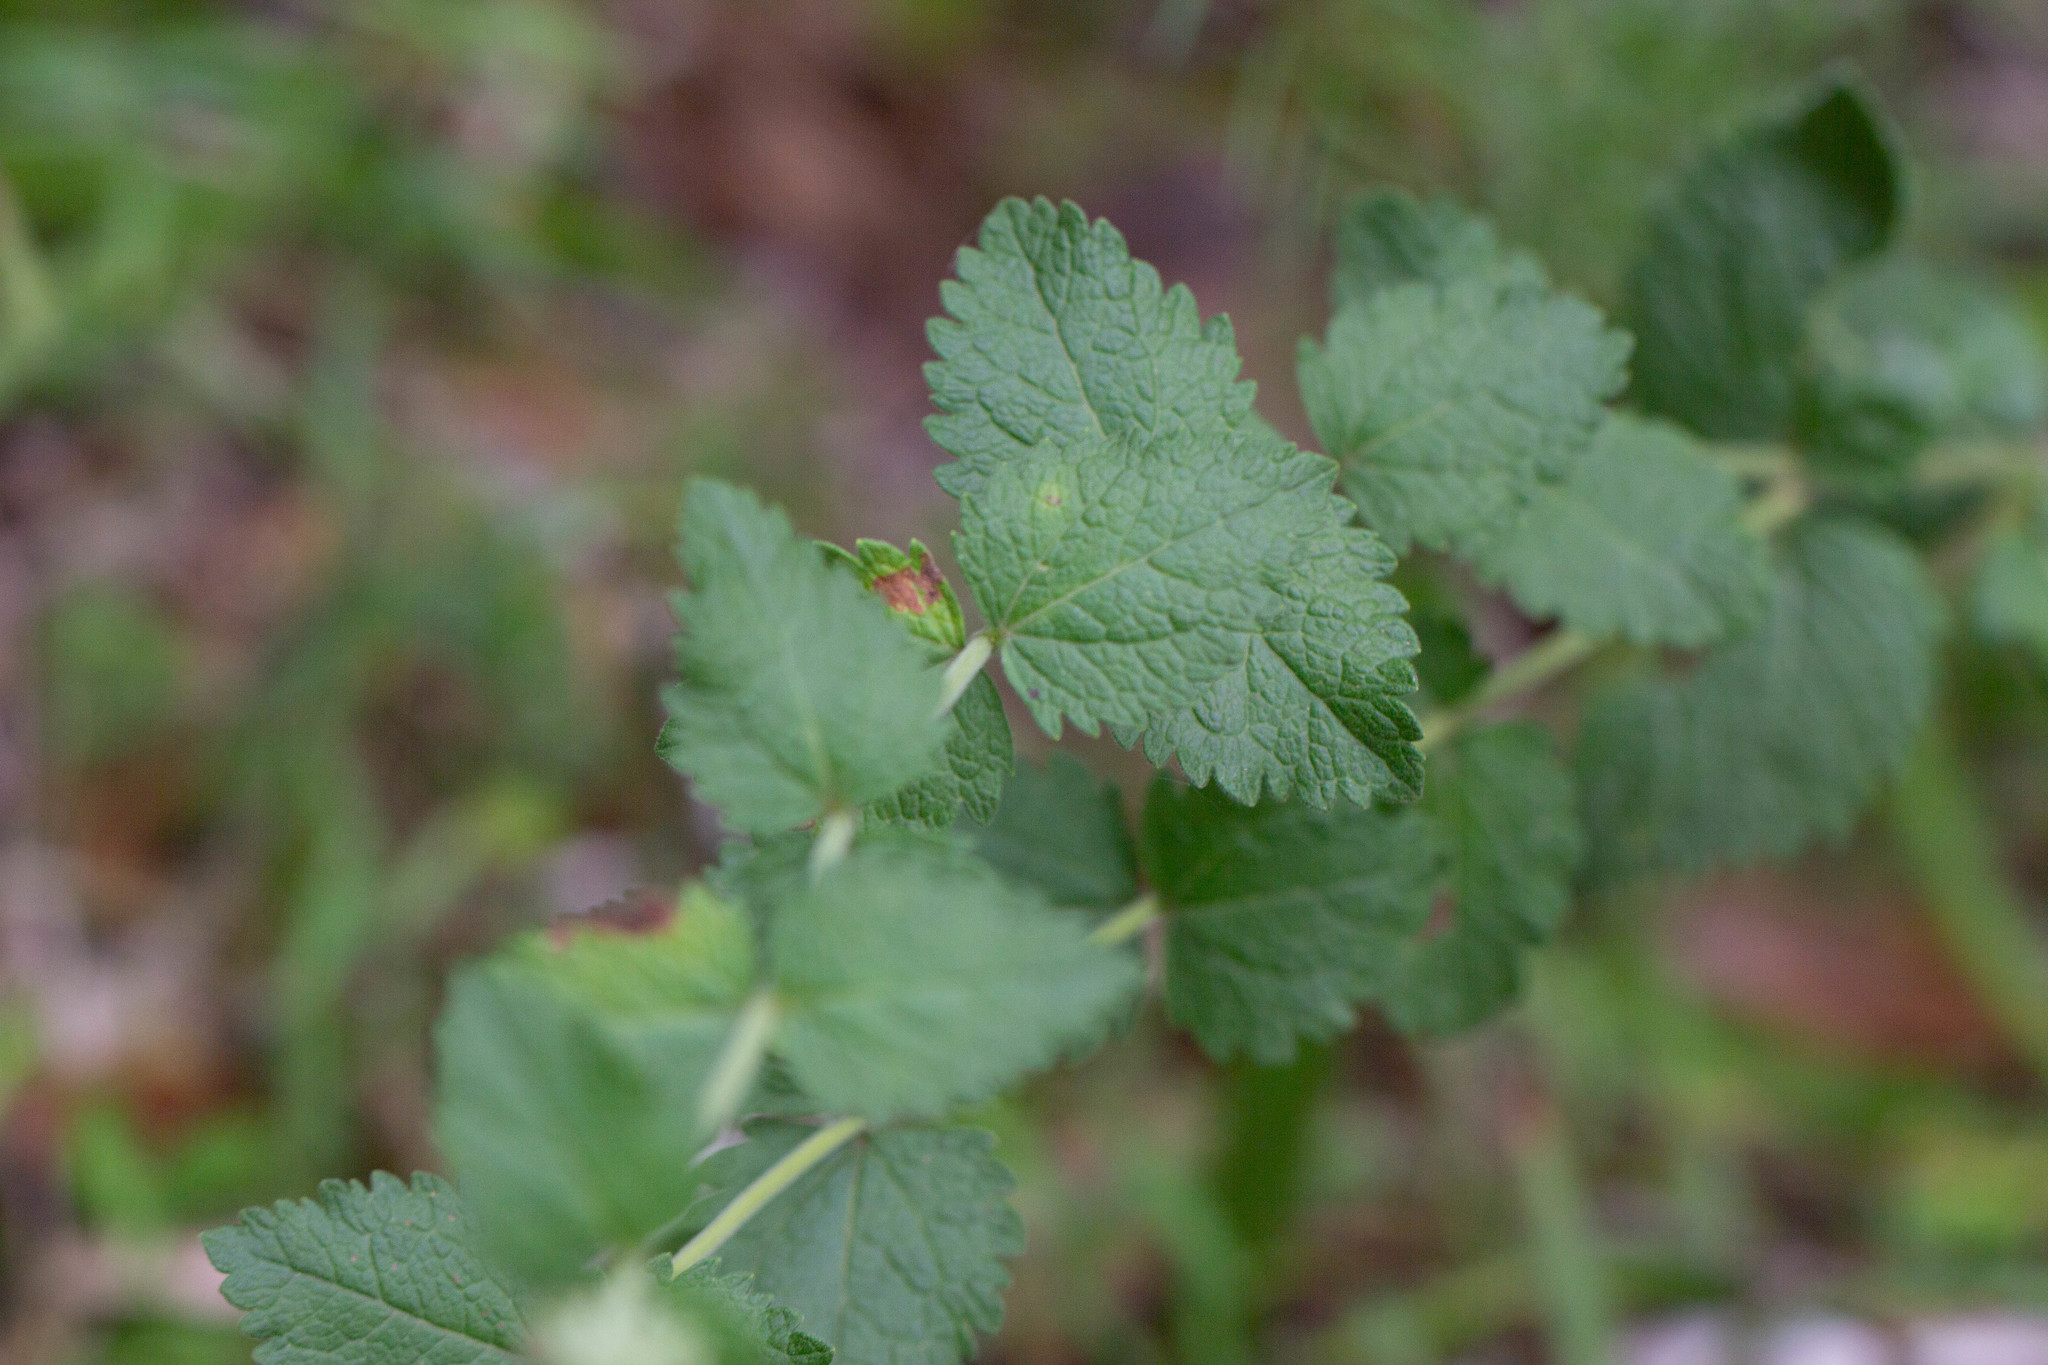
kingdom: Plantae
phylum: Tracheophyta
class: Magnoliopsida
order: Asterales
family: Asteraceae
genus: Eupatorium
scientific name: Eupatorium rotundifolium
